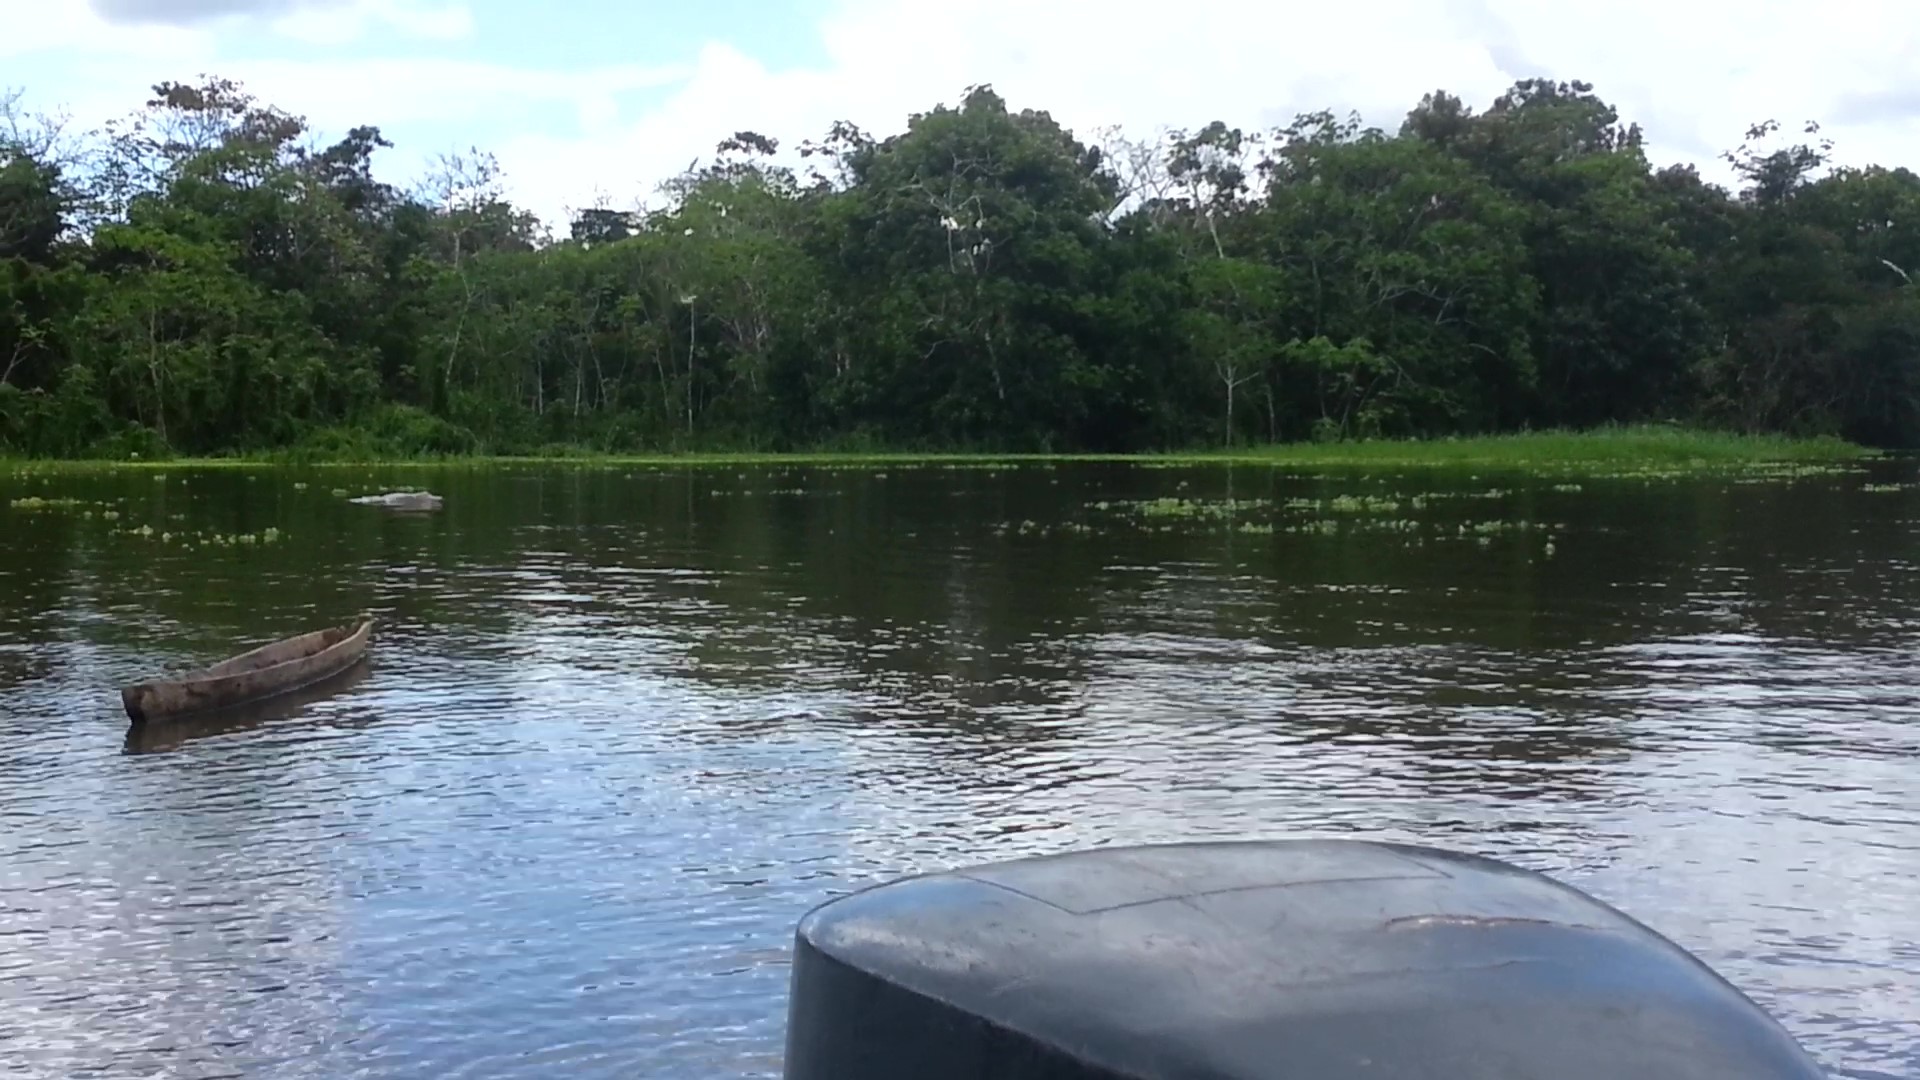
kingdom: Animalia
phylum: Chordata
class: Mammalia
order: Cetacea
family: Iniidae
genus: Inia
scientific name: Inia geoffrensis
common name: Amazon river dolphin
